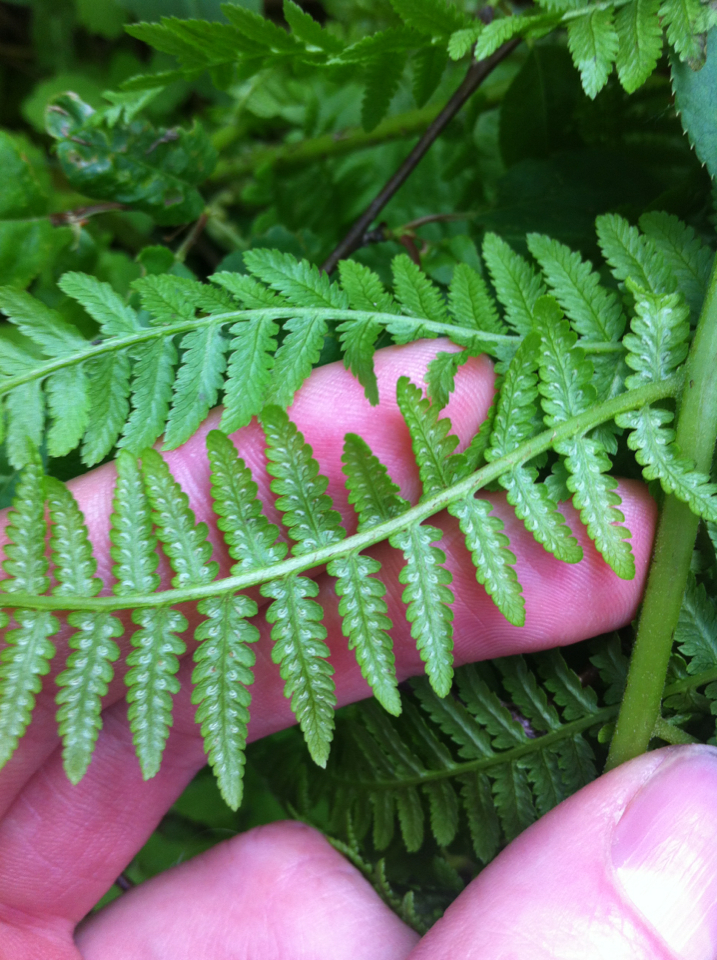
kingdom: Plantae
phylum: Tracheophyta
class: Polypodiopsida
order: Polypodiales
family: Athyriaceae
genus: Athyrium
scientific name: Athyrium angustum
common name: Northern lady fern
